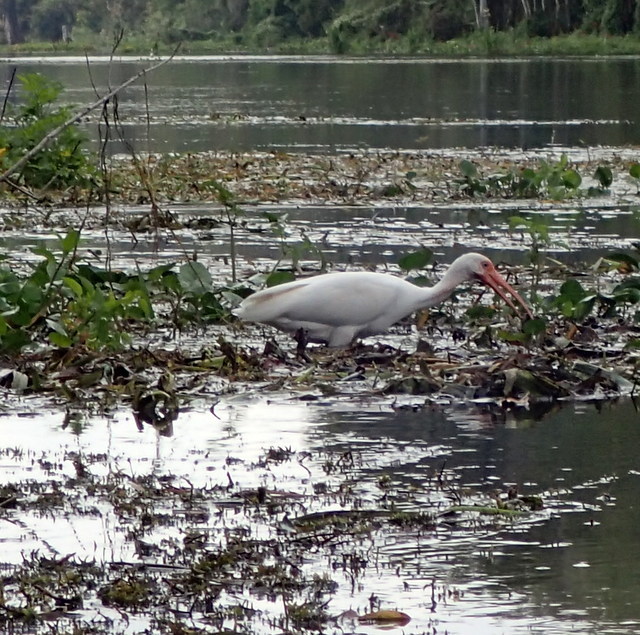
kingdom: Animalia
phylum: Chordata
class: Aves
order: Pelecaniformes
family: Threskiornithidae
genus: Eudocimus
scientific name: Eudocimus albus
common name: White ibis
